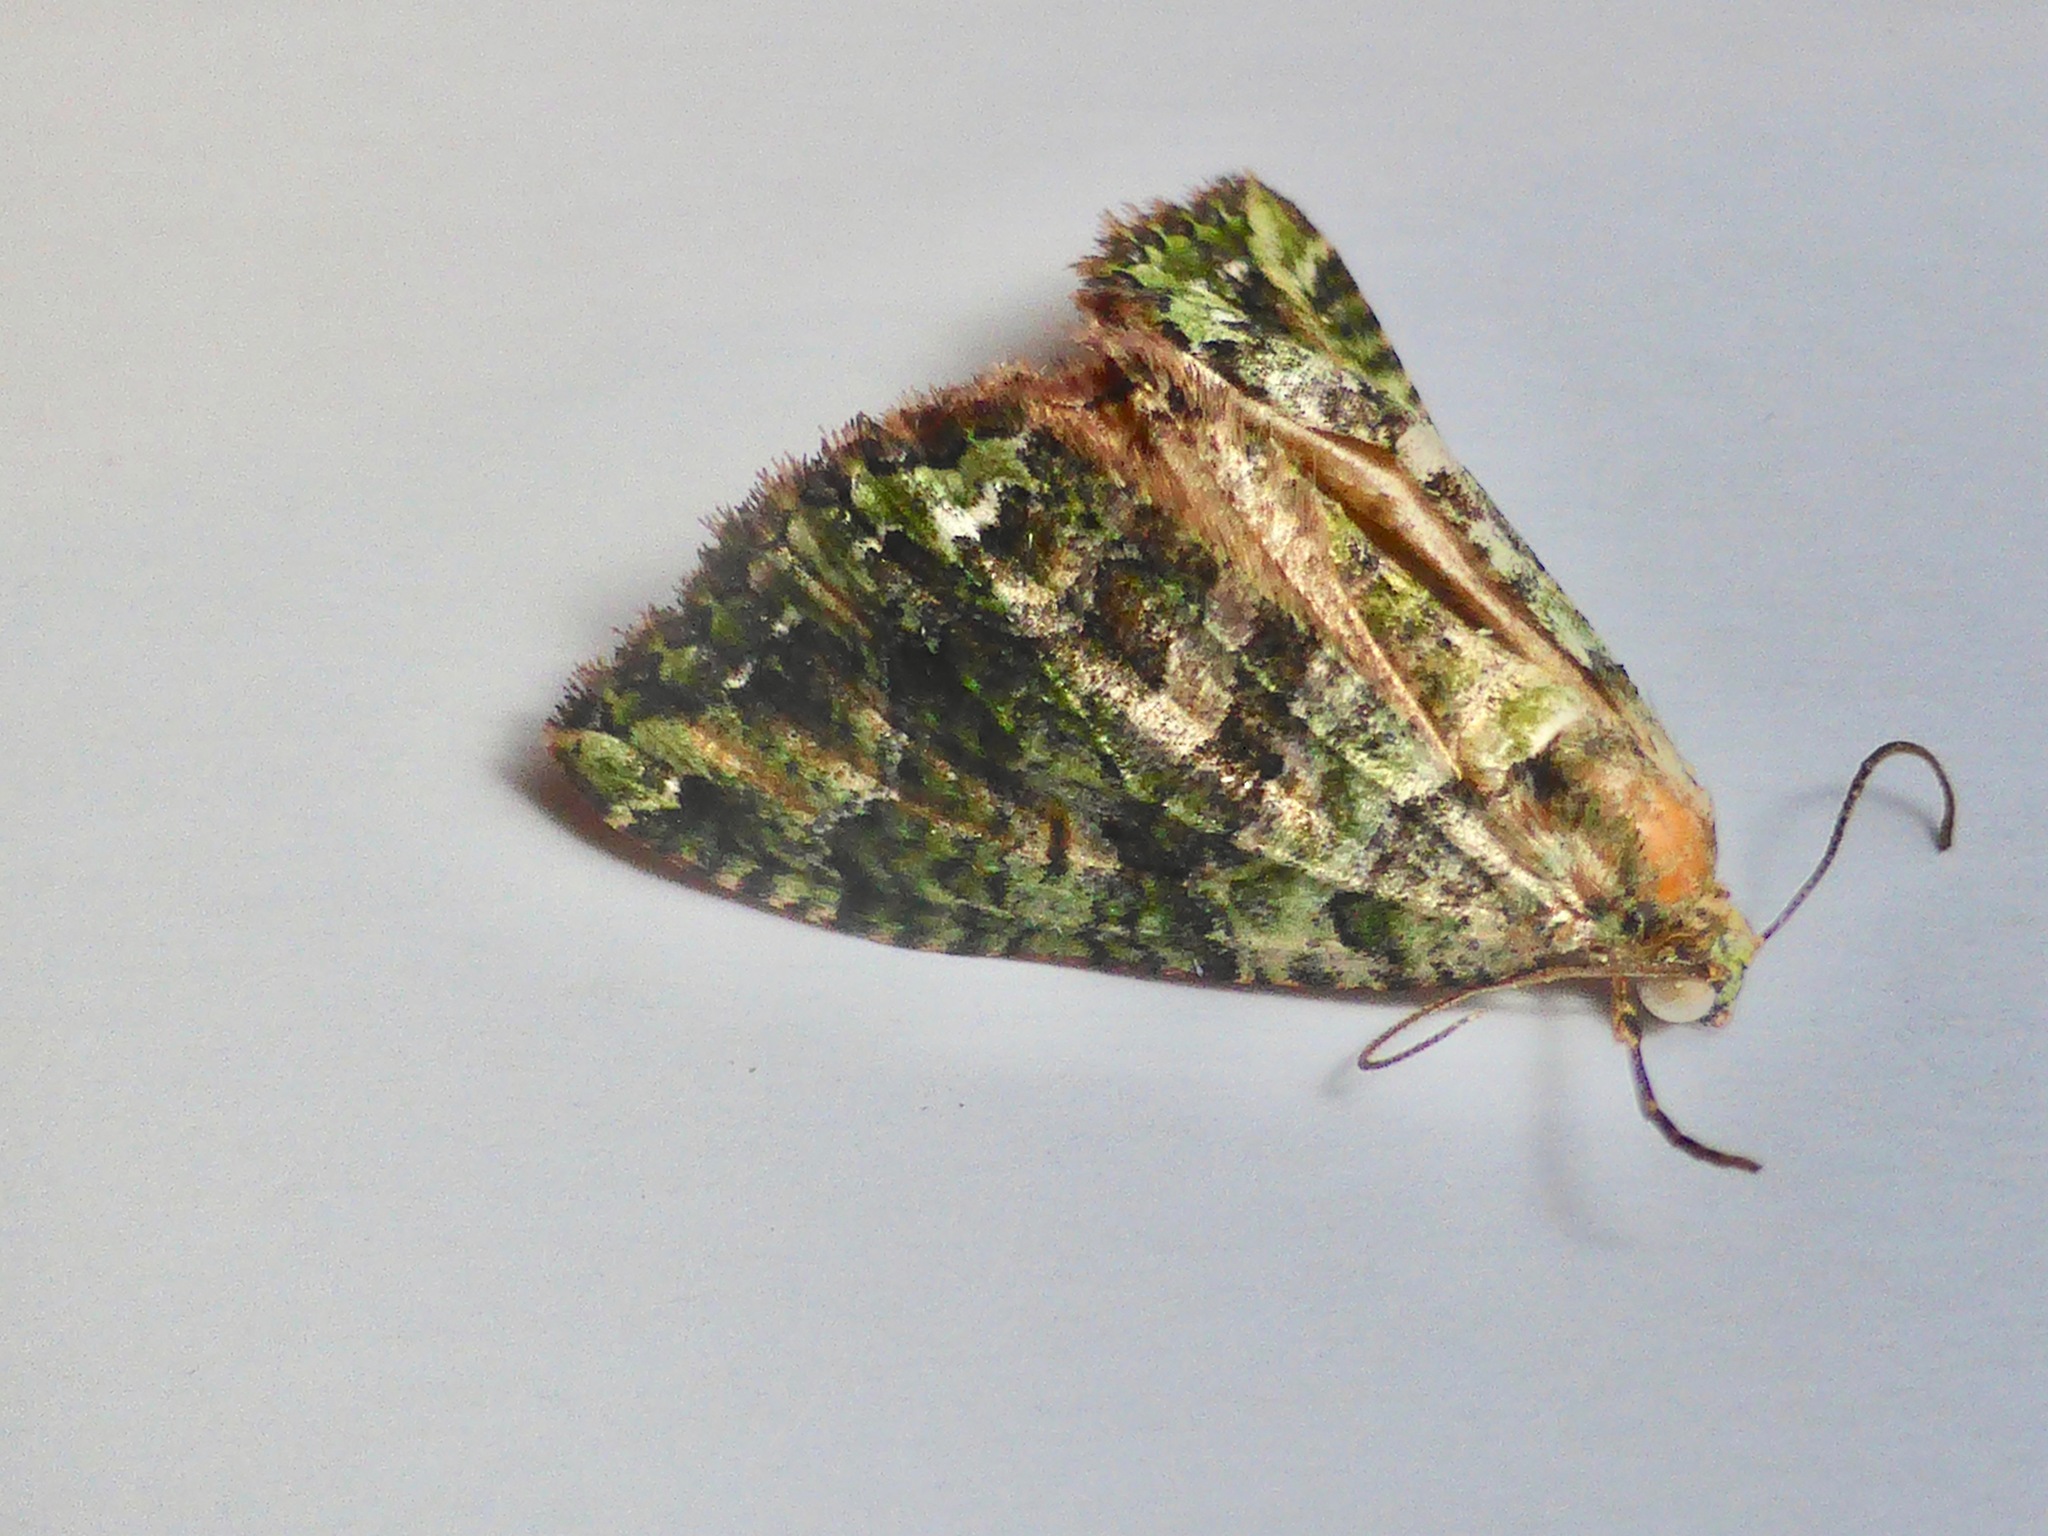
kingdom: Animalia
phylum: Arthropoda
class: Insecta
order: Lepidoptera
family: Geometridae
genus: Austrocidaria
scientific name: Austrocidaria similata
